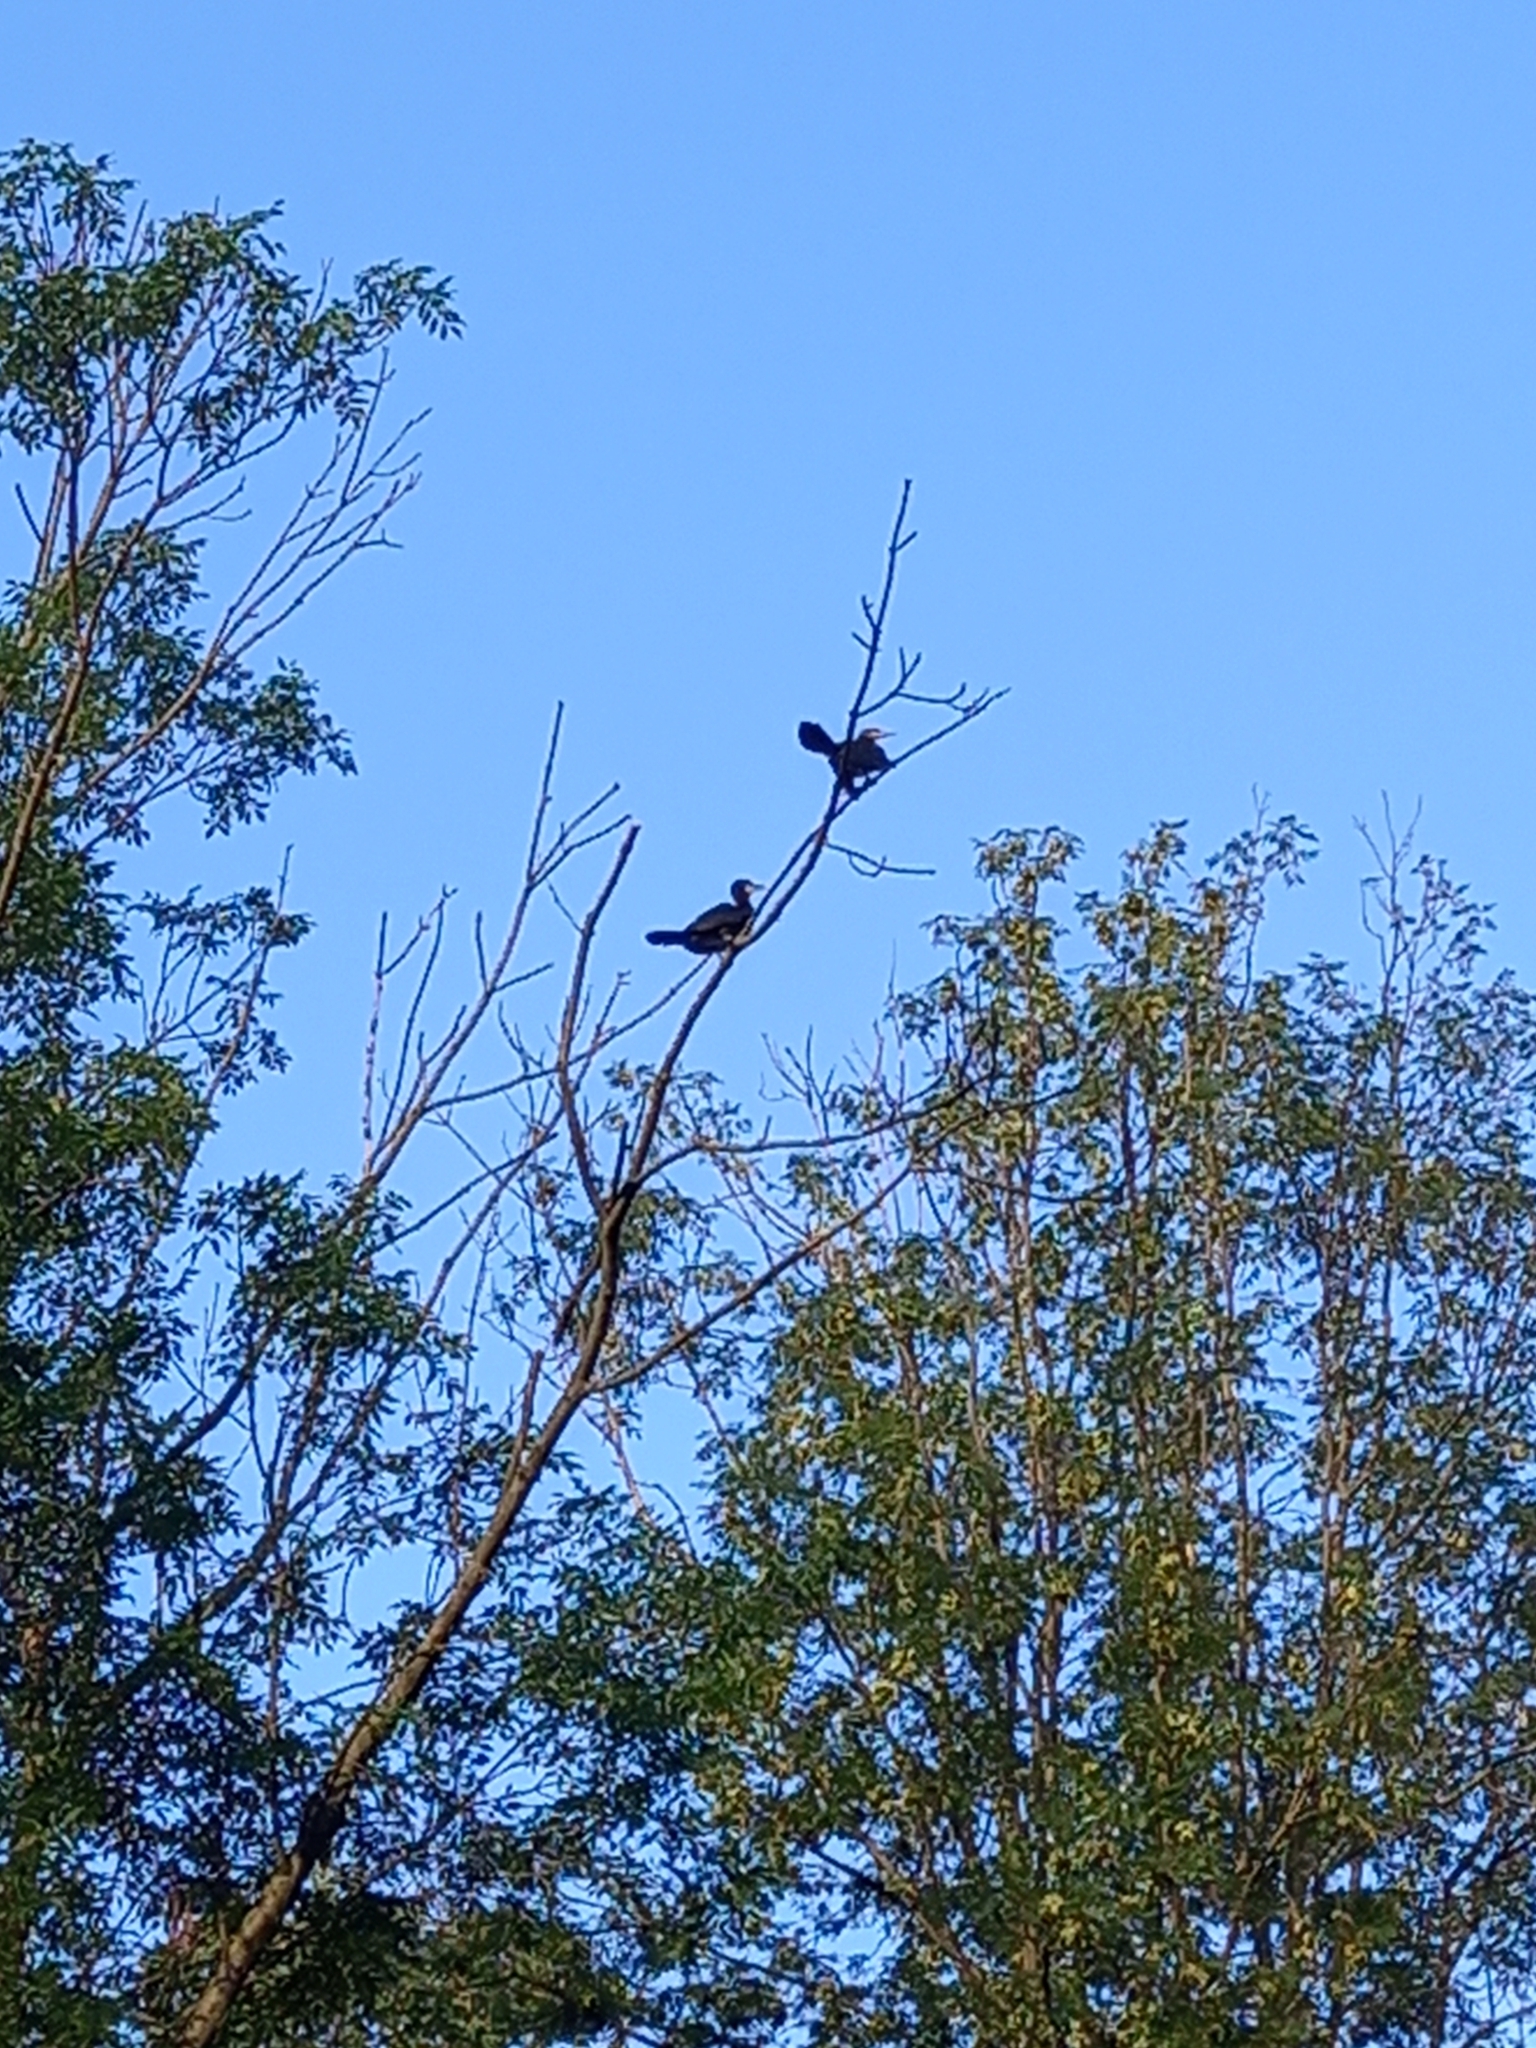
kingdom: Animalia
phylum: Chordata
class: Aves
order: Suliformes
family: Phalacrocoracidae
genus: Phalacrocorax
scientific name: Phalacrocorax carbo
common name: Great cormorant
